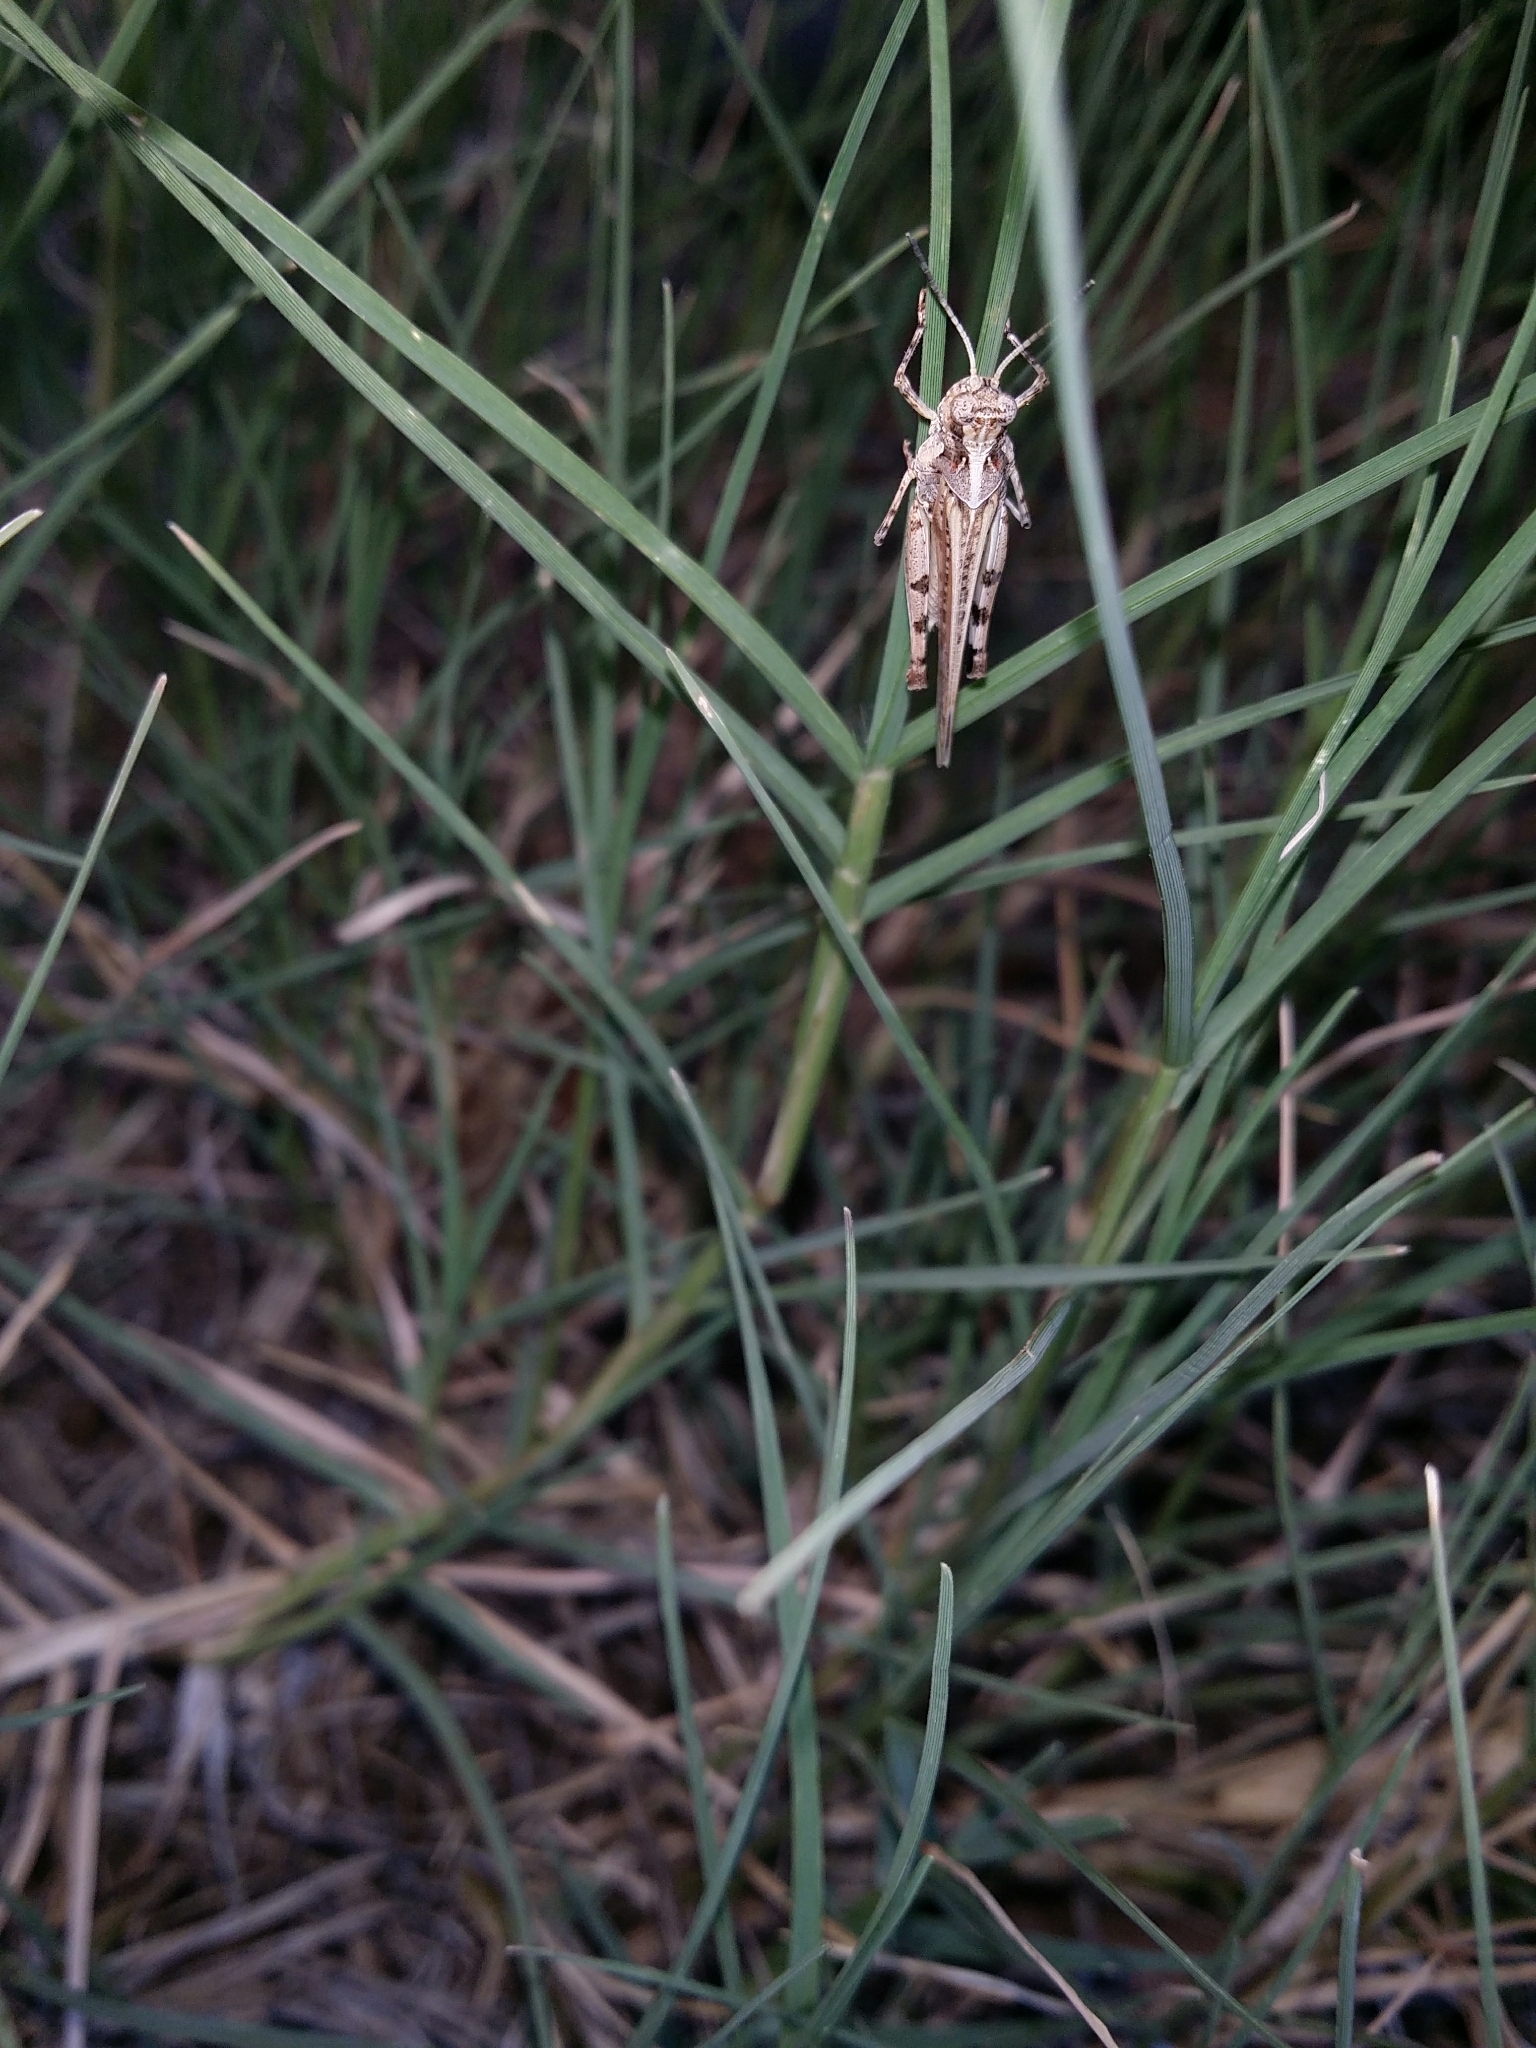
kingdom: Animalia
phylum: Arthropoda
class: Insecta
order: Orthoptera
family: Acrididae
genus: Pycnostictus
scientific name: Pycnostictus seriatus
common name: Common bandwing
